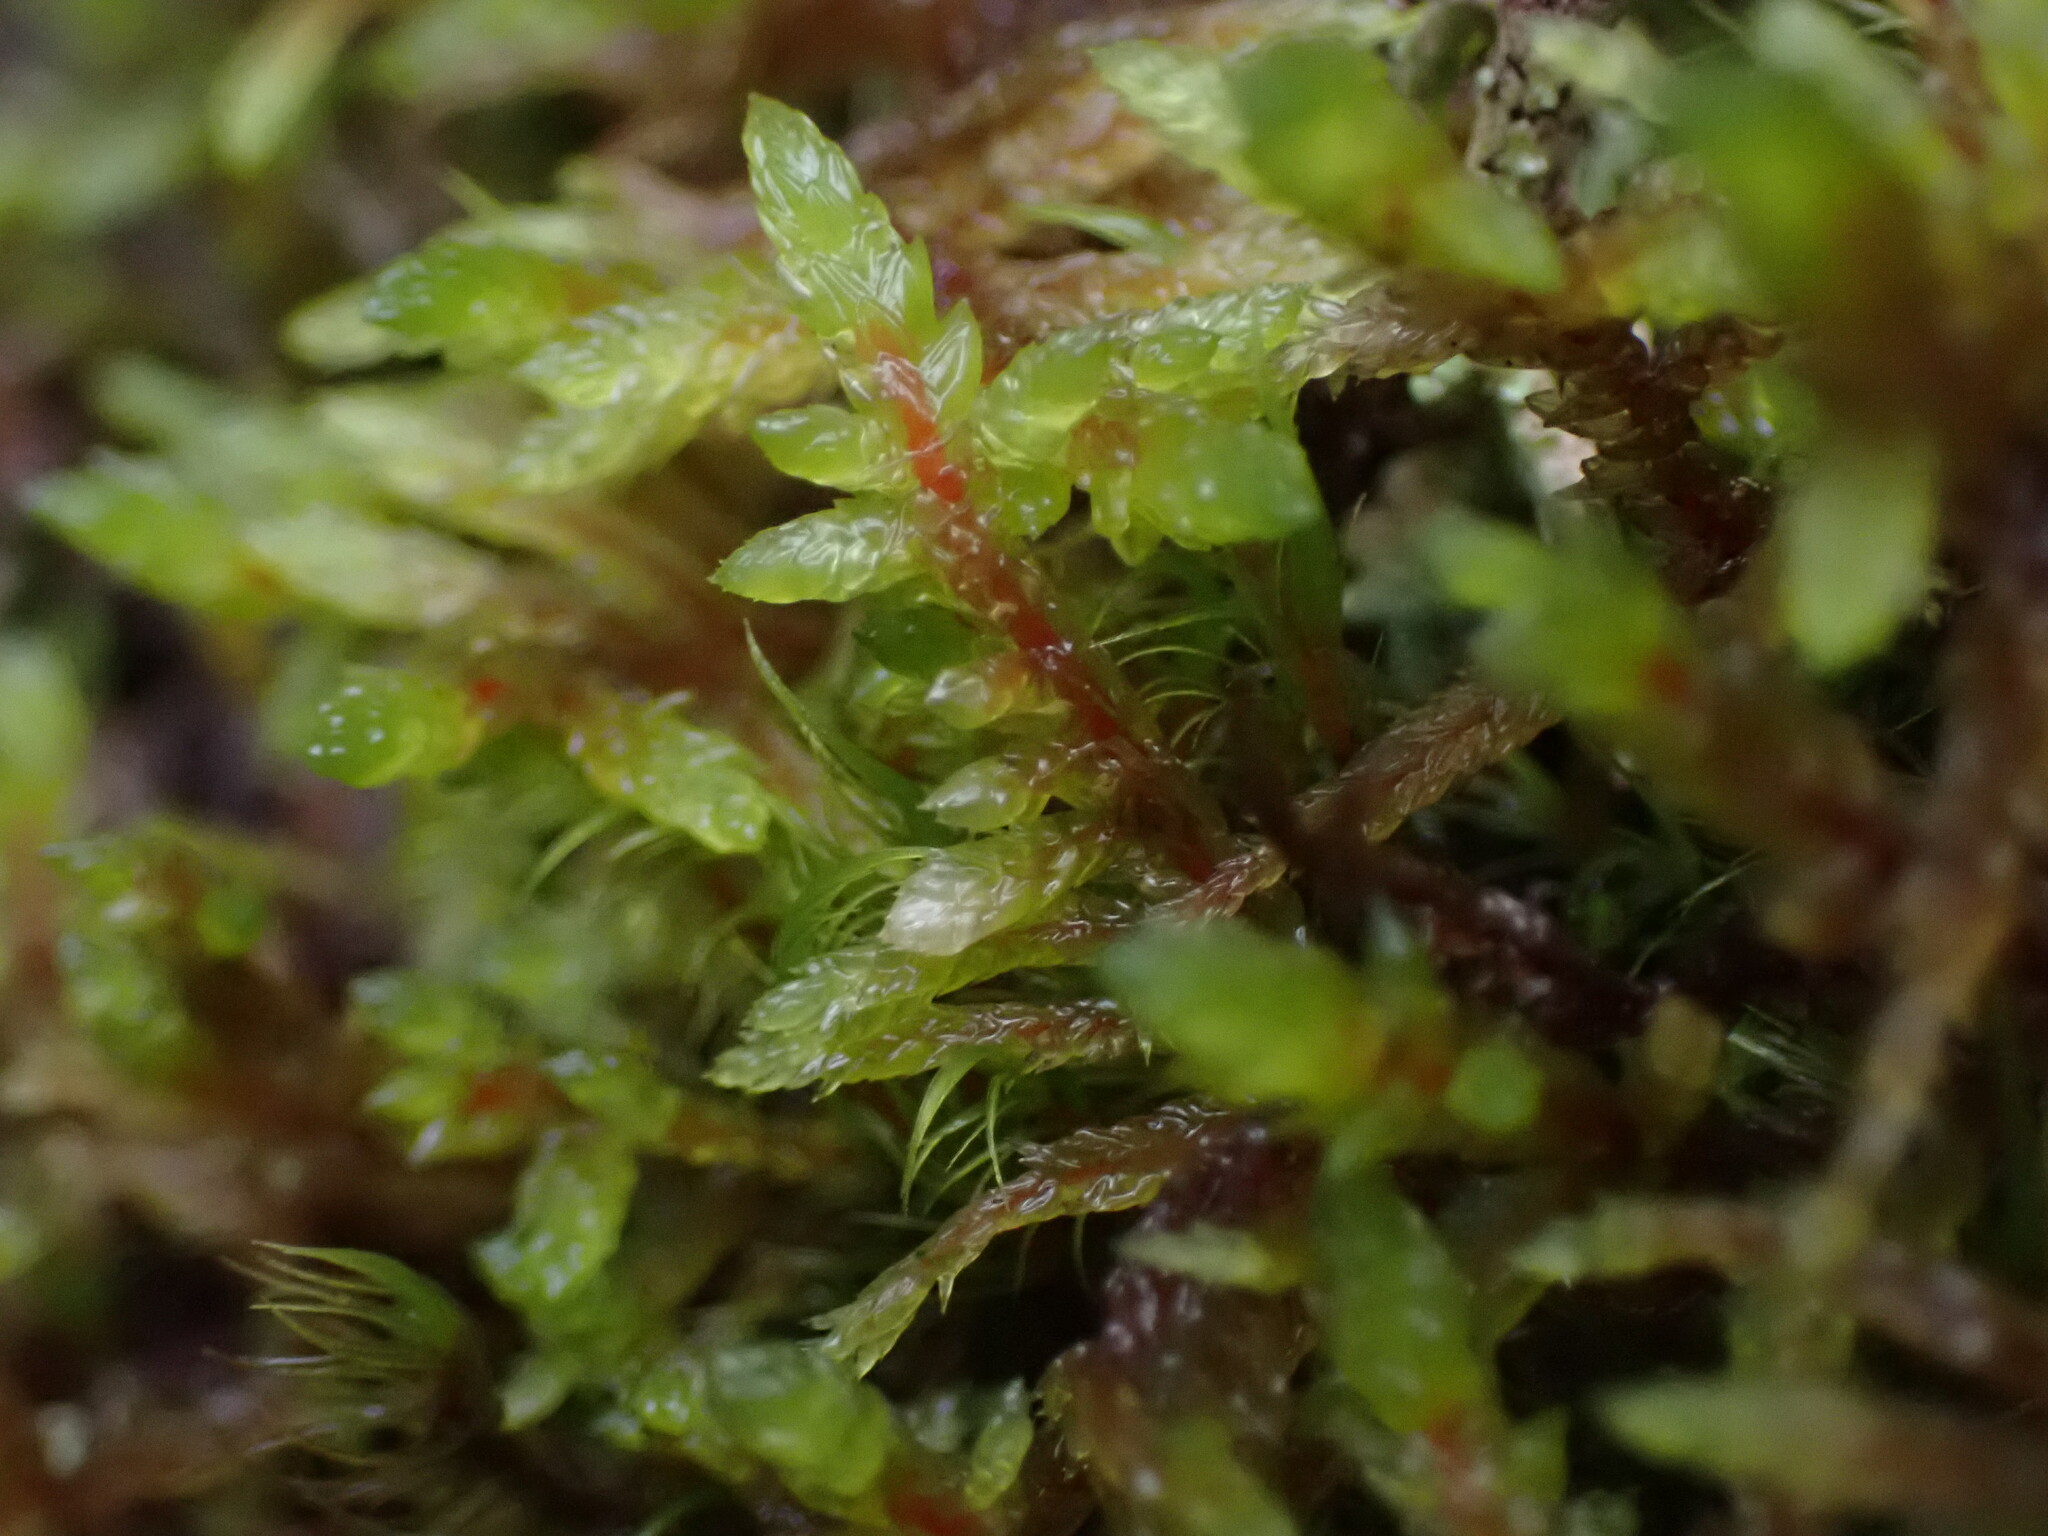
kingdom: Plantae
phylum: Bryophyta
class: Bryopsida
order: Hypnales
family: Hylocomiaceae
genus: Pleurozium
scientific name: Pleurozium schreberi
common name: Red-stemmed feather moss
